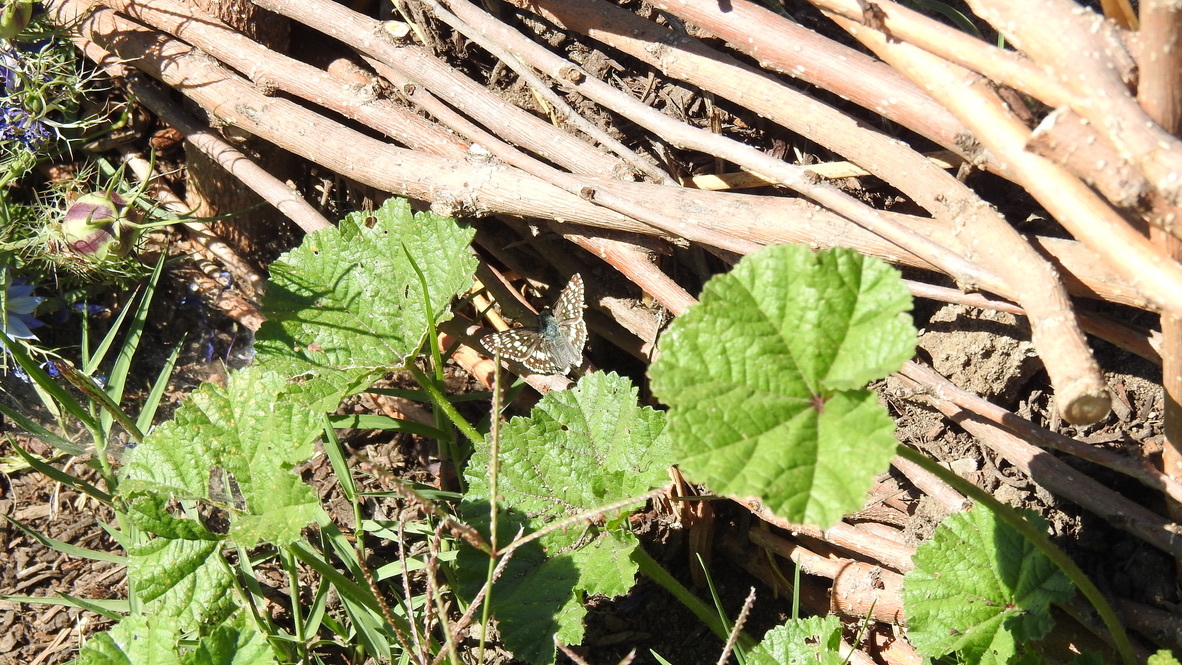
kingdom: Animalia
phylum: Arthropoda
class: Insecta
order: Lepidoptera
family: Hesperiidae
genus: Burnsius
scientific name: Burnsius communis
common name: Common checkered-skipper
